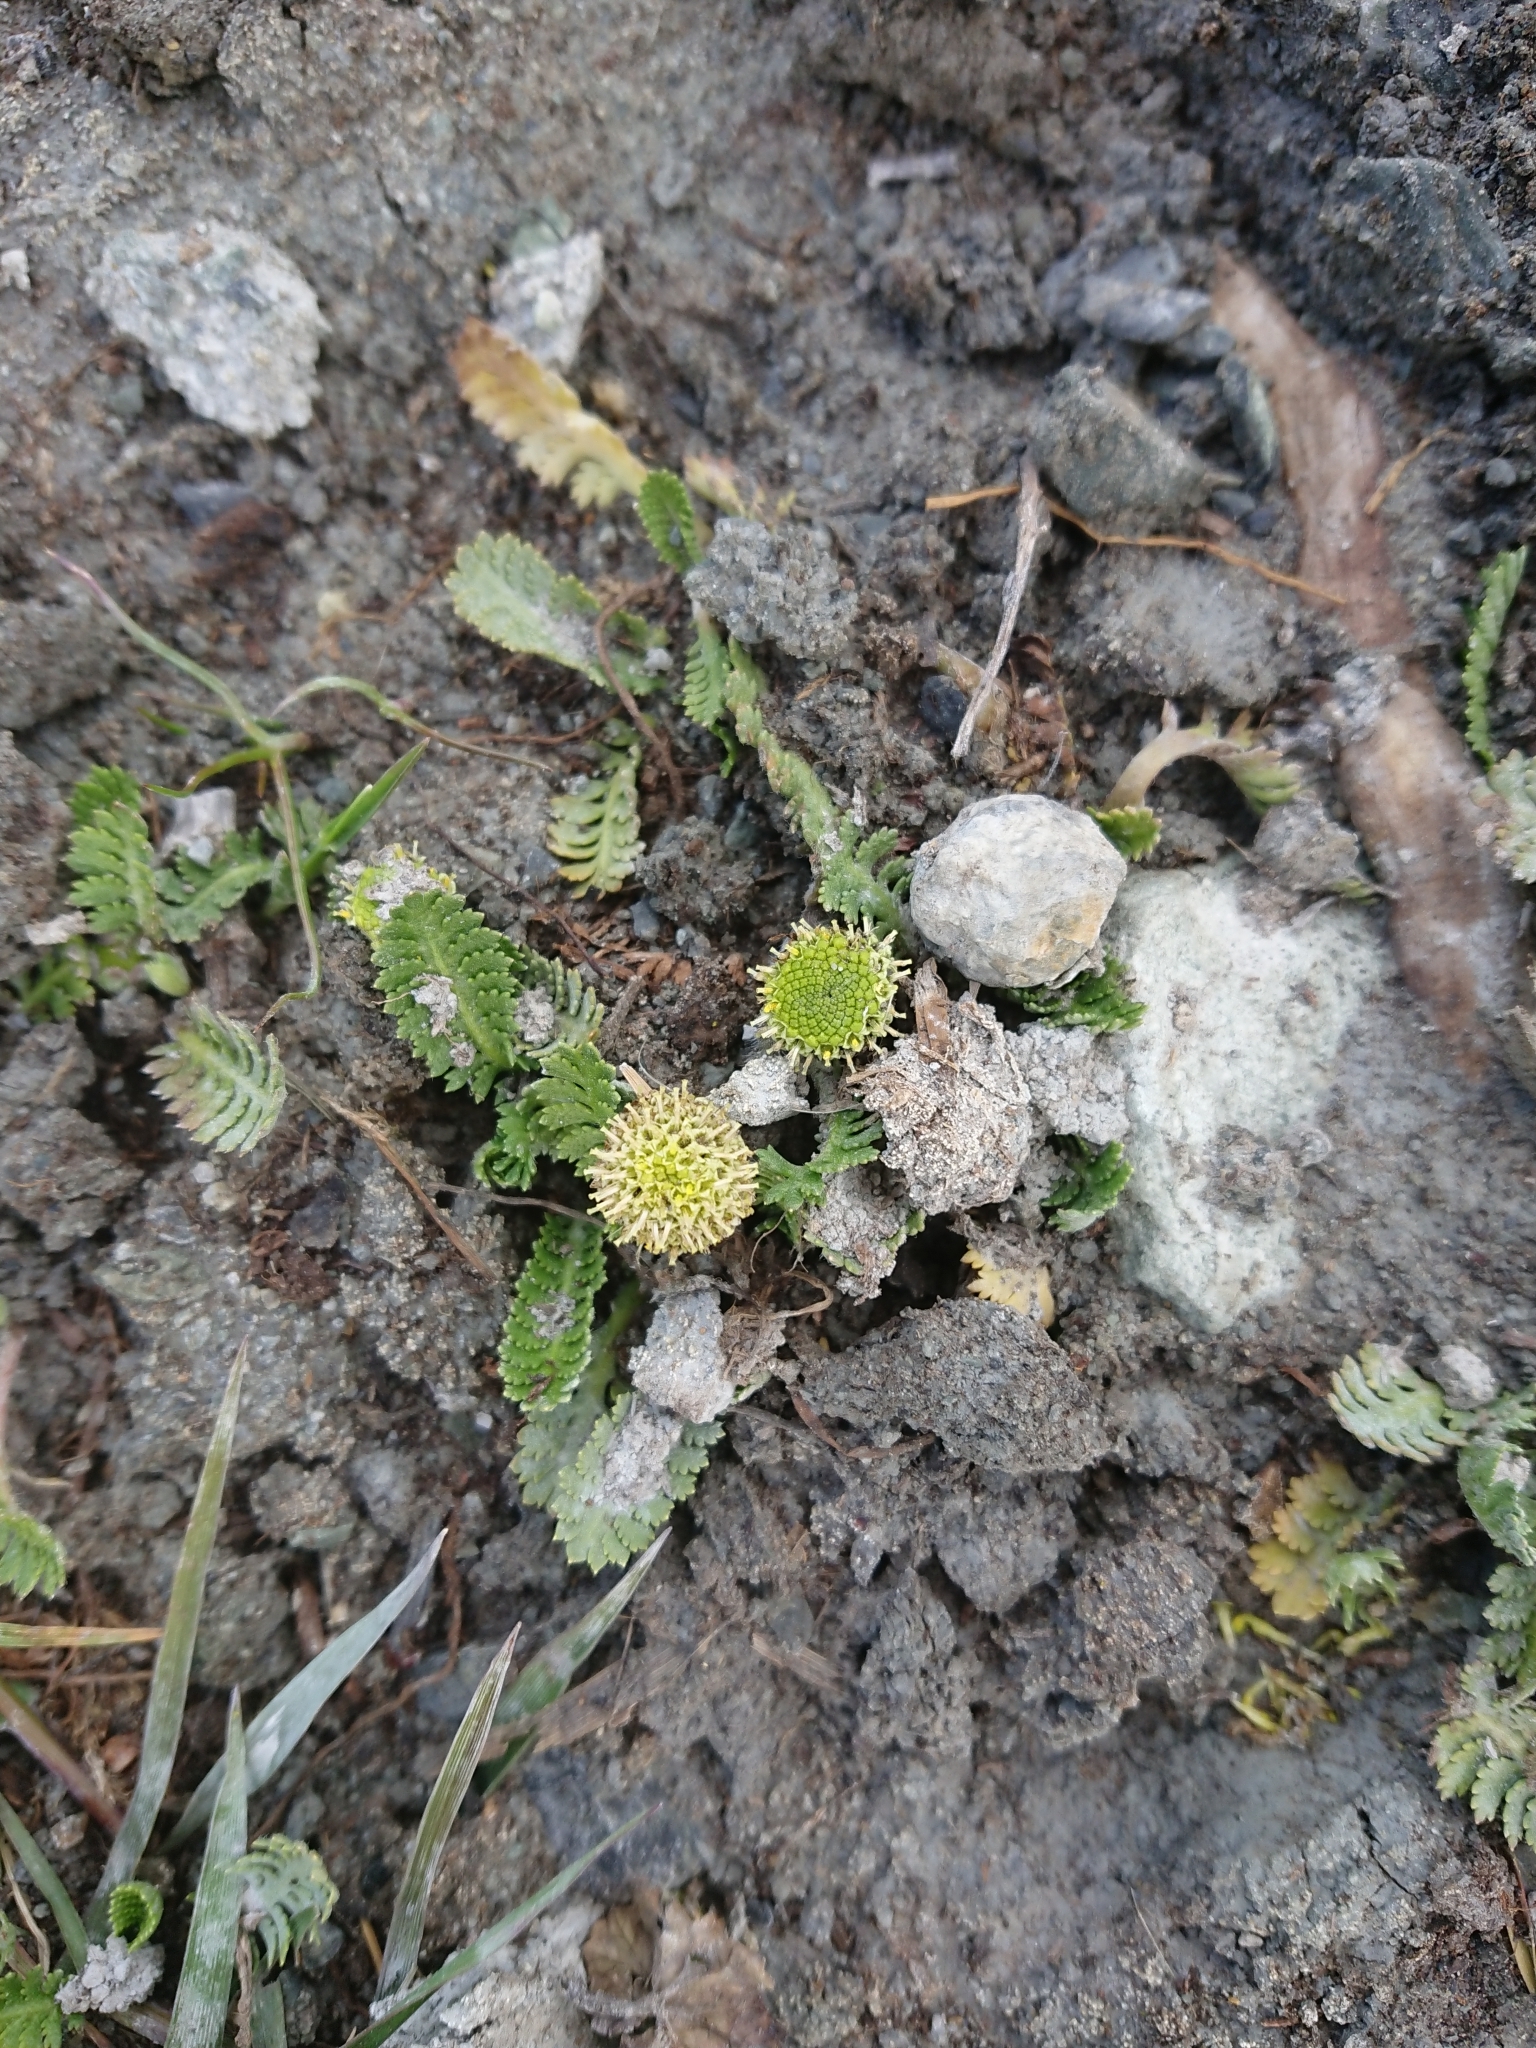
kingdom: Plantae
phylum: Tracheophyta
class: Magnoliopsida
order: Asterales
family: Asteraceae
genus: Leptinella
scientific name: Leptinella scariosa
